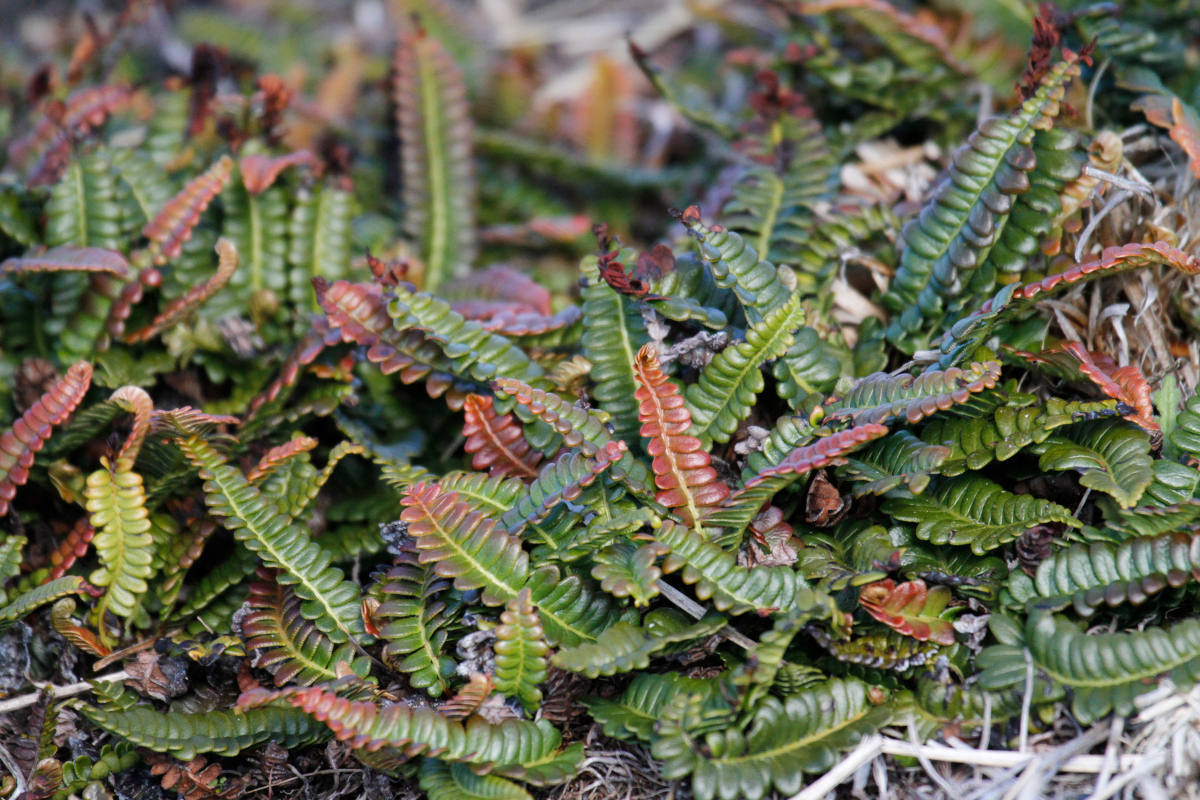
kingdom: Plantae
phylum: Tracheophyta
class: Polypodiopsida
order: Polypodiales
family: Blechnaceae
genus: Austroblechnum
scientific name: Austroblechnum penna-marina
